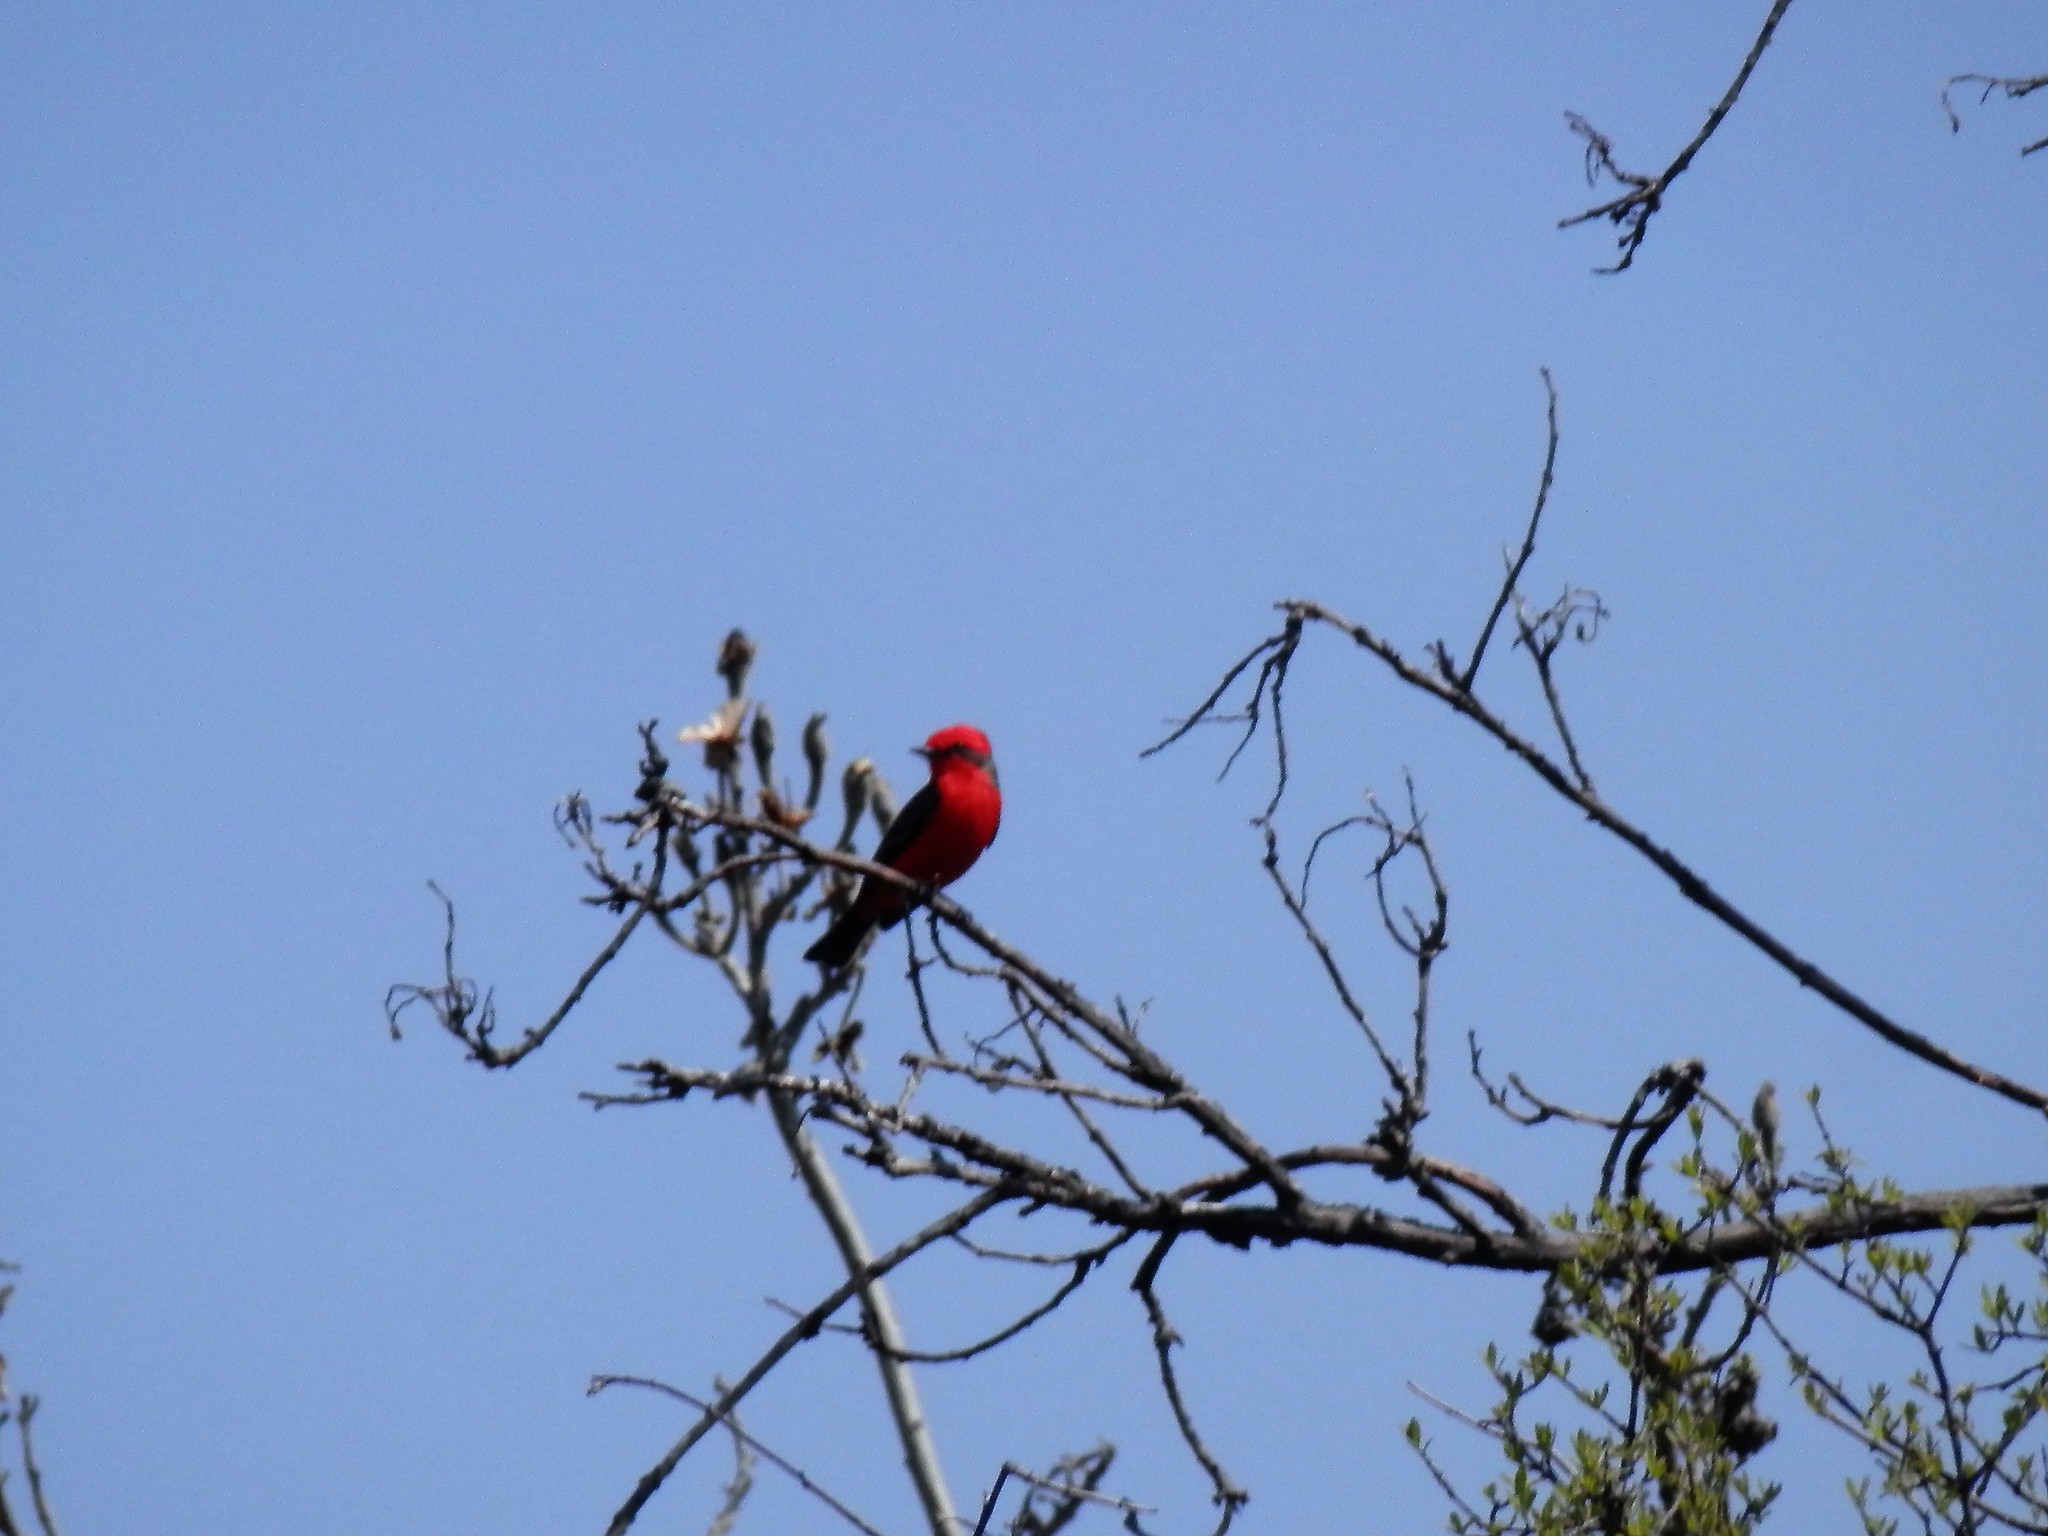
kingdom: Animalia
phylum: Chordata
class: Aves
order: Passeriformes
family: Tyrannidae
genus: Pyrocephalus
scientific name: Pyrocephalus rubinus
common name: Vermilion flycatcher
